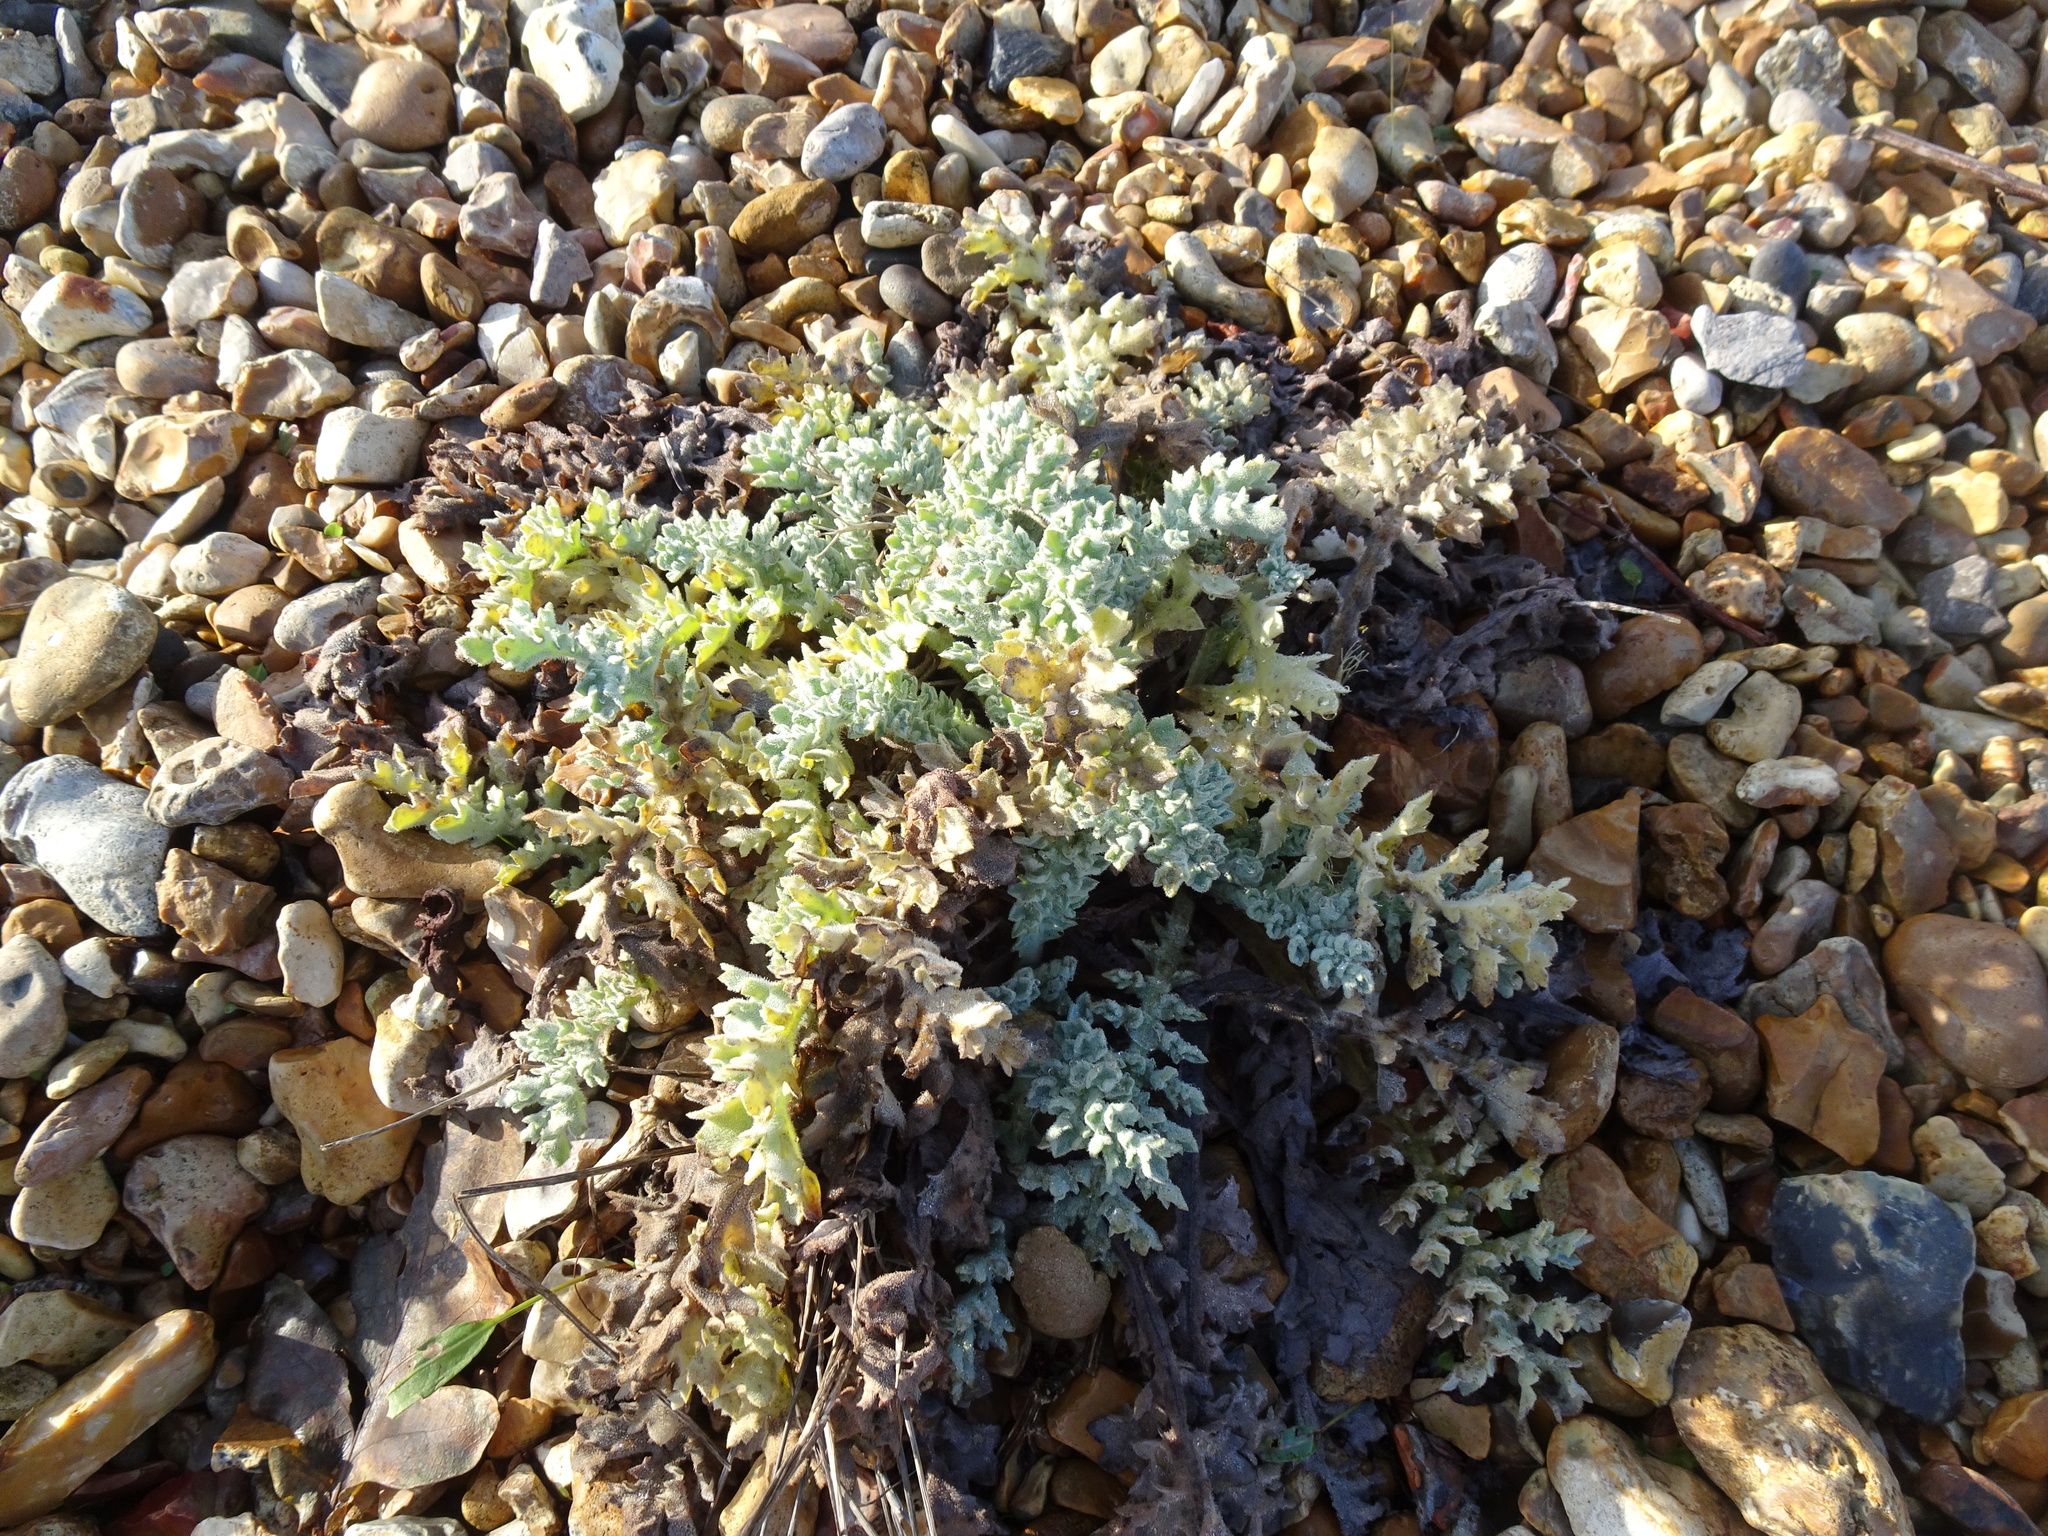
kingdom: Plantae
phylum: Tracheophyta
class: Magnoliopsida
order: Ranunculales
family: Papaveraceae
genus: Glaucium
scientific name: Glaucium flavum
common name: Yellow horned-poppy
